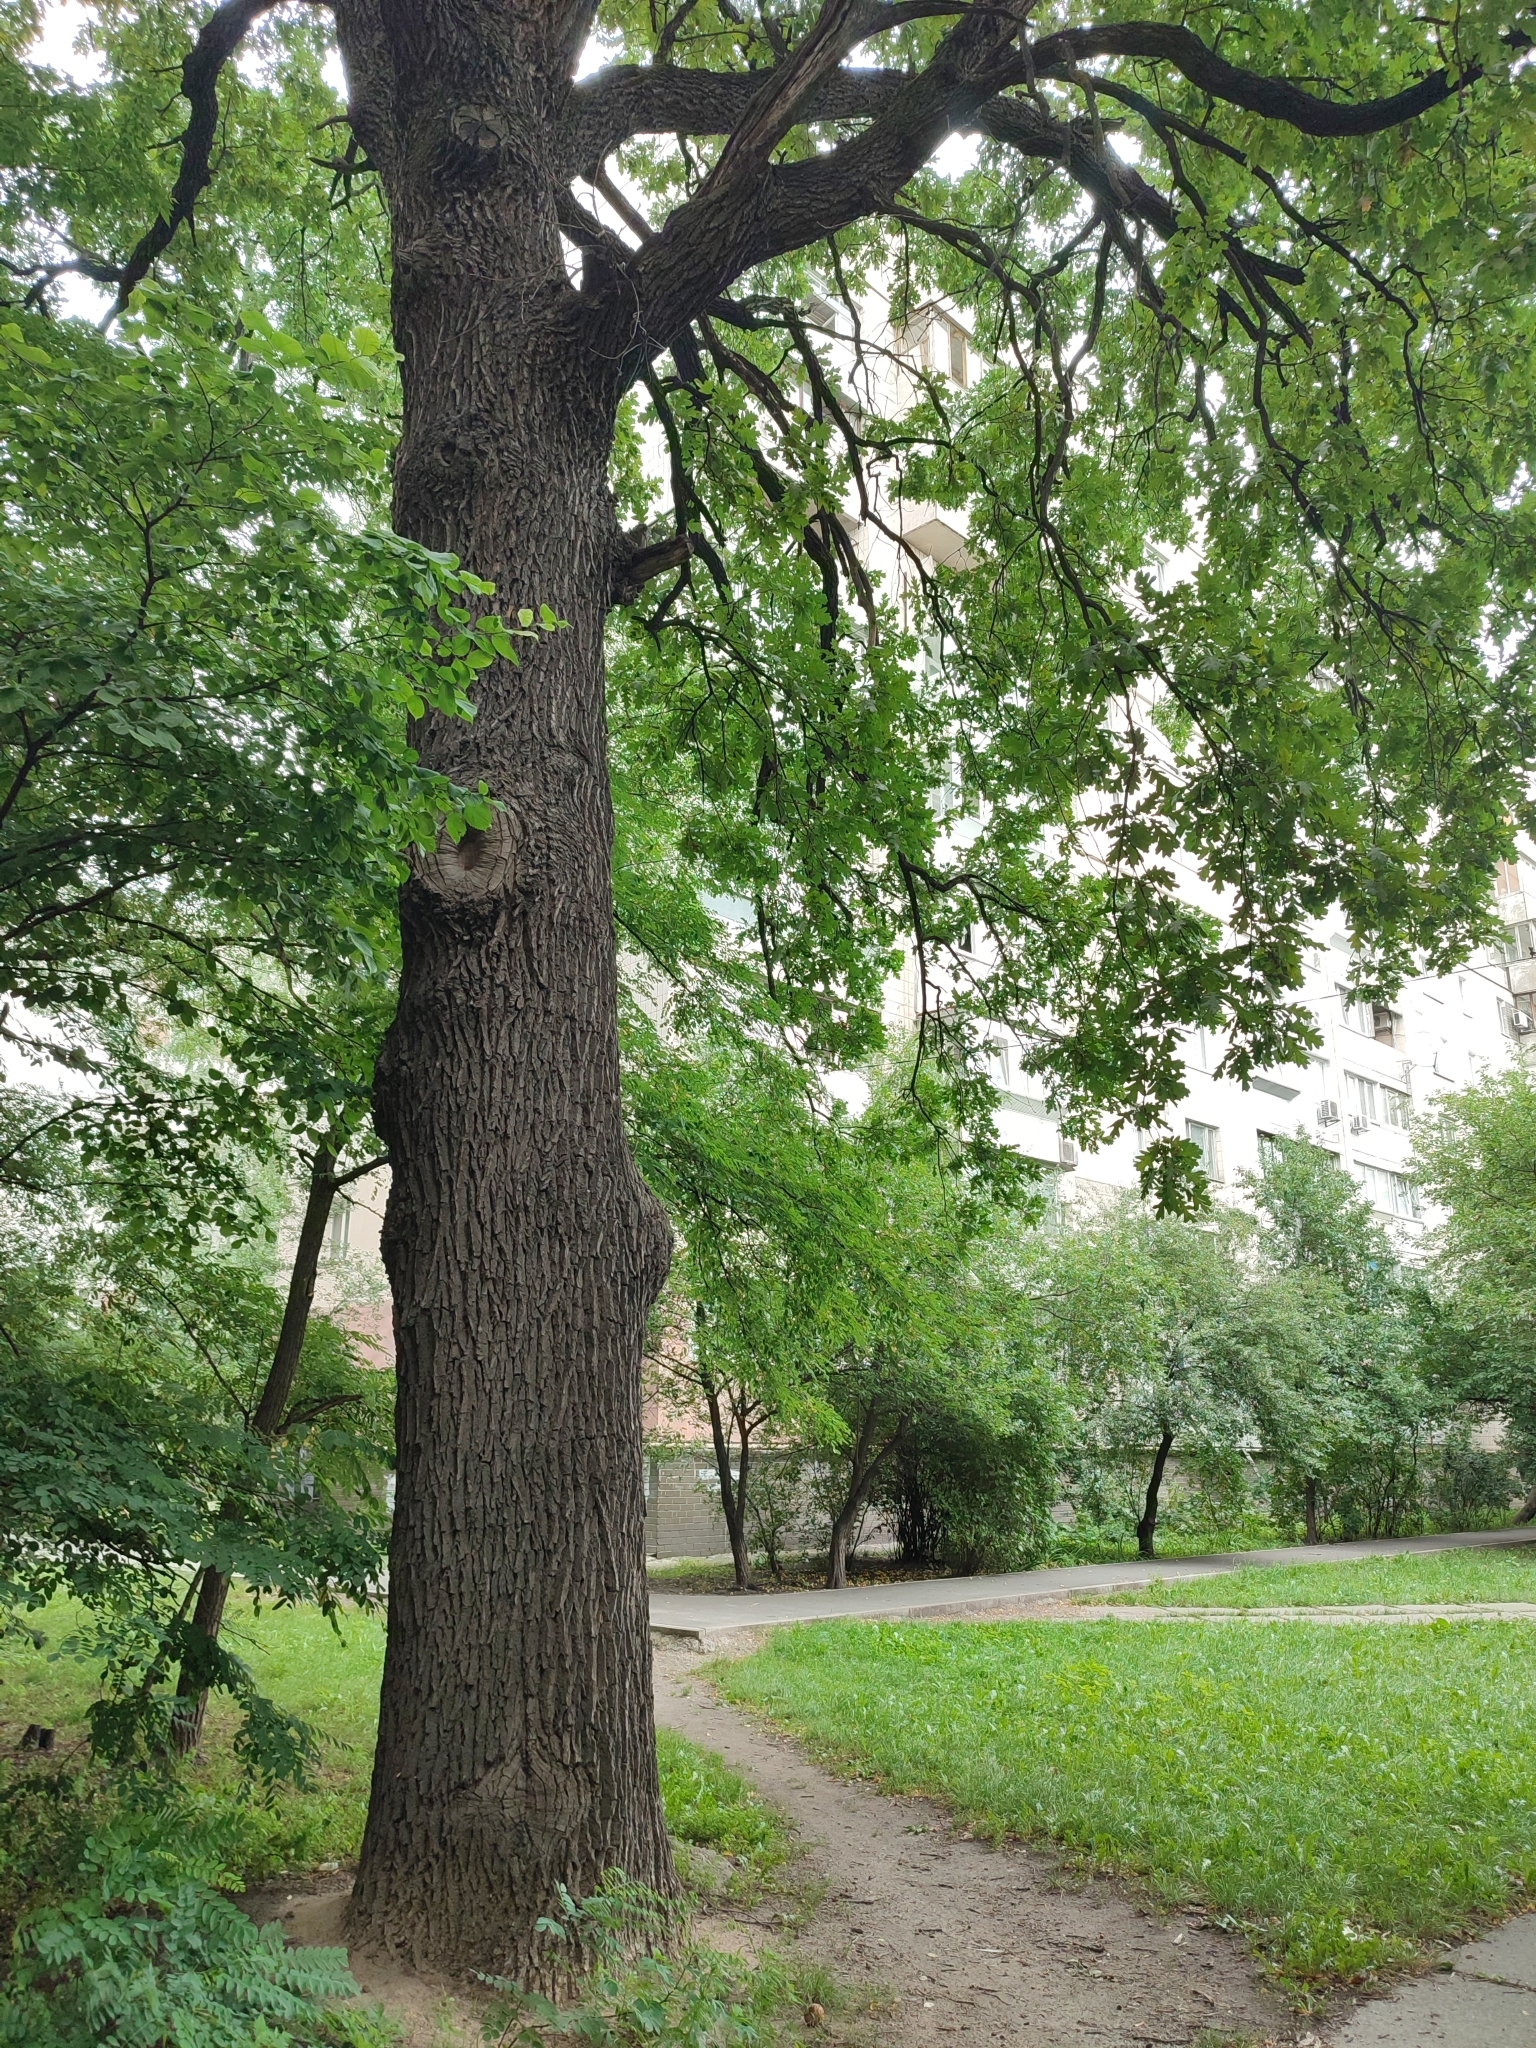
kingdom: Plantae
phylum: Tracheophyta
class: Magnoliopsida
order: Fagales
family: Fagaceae
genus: Quercus
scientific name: Quercus robur
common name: Pedunculate oak
